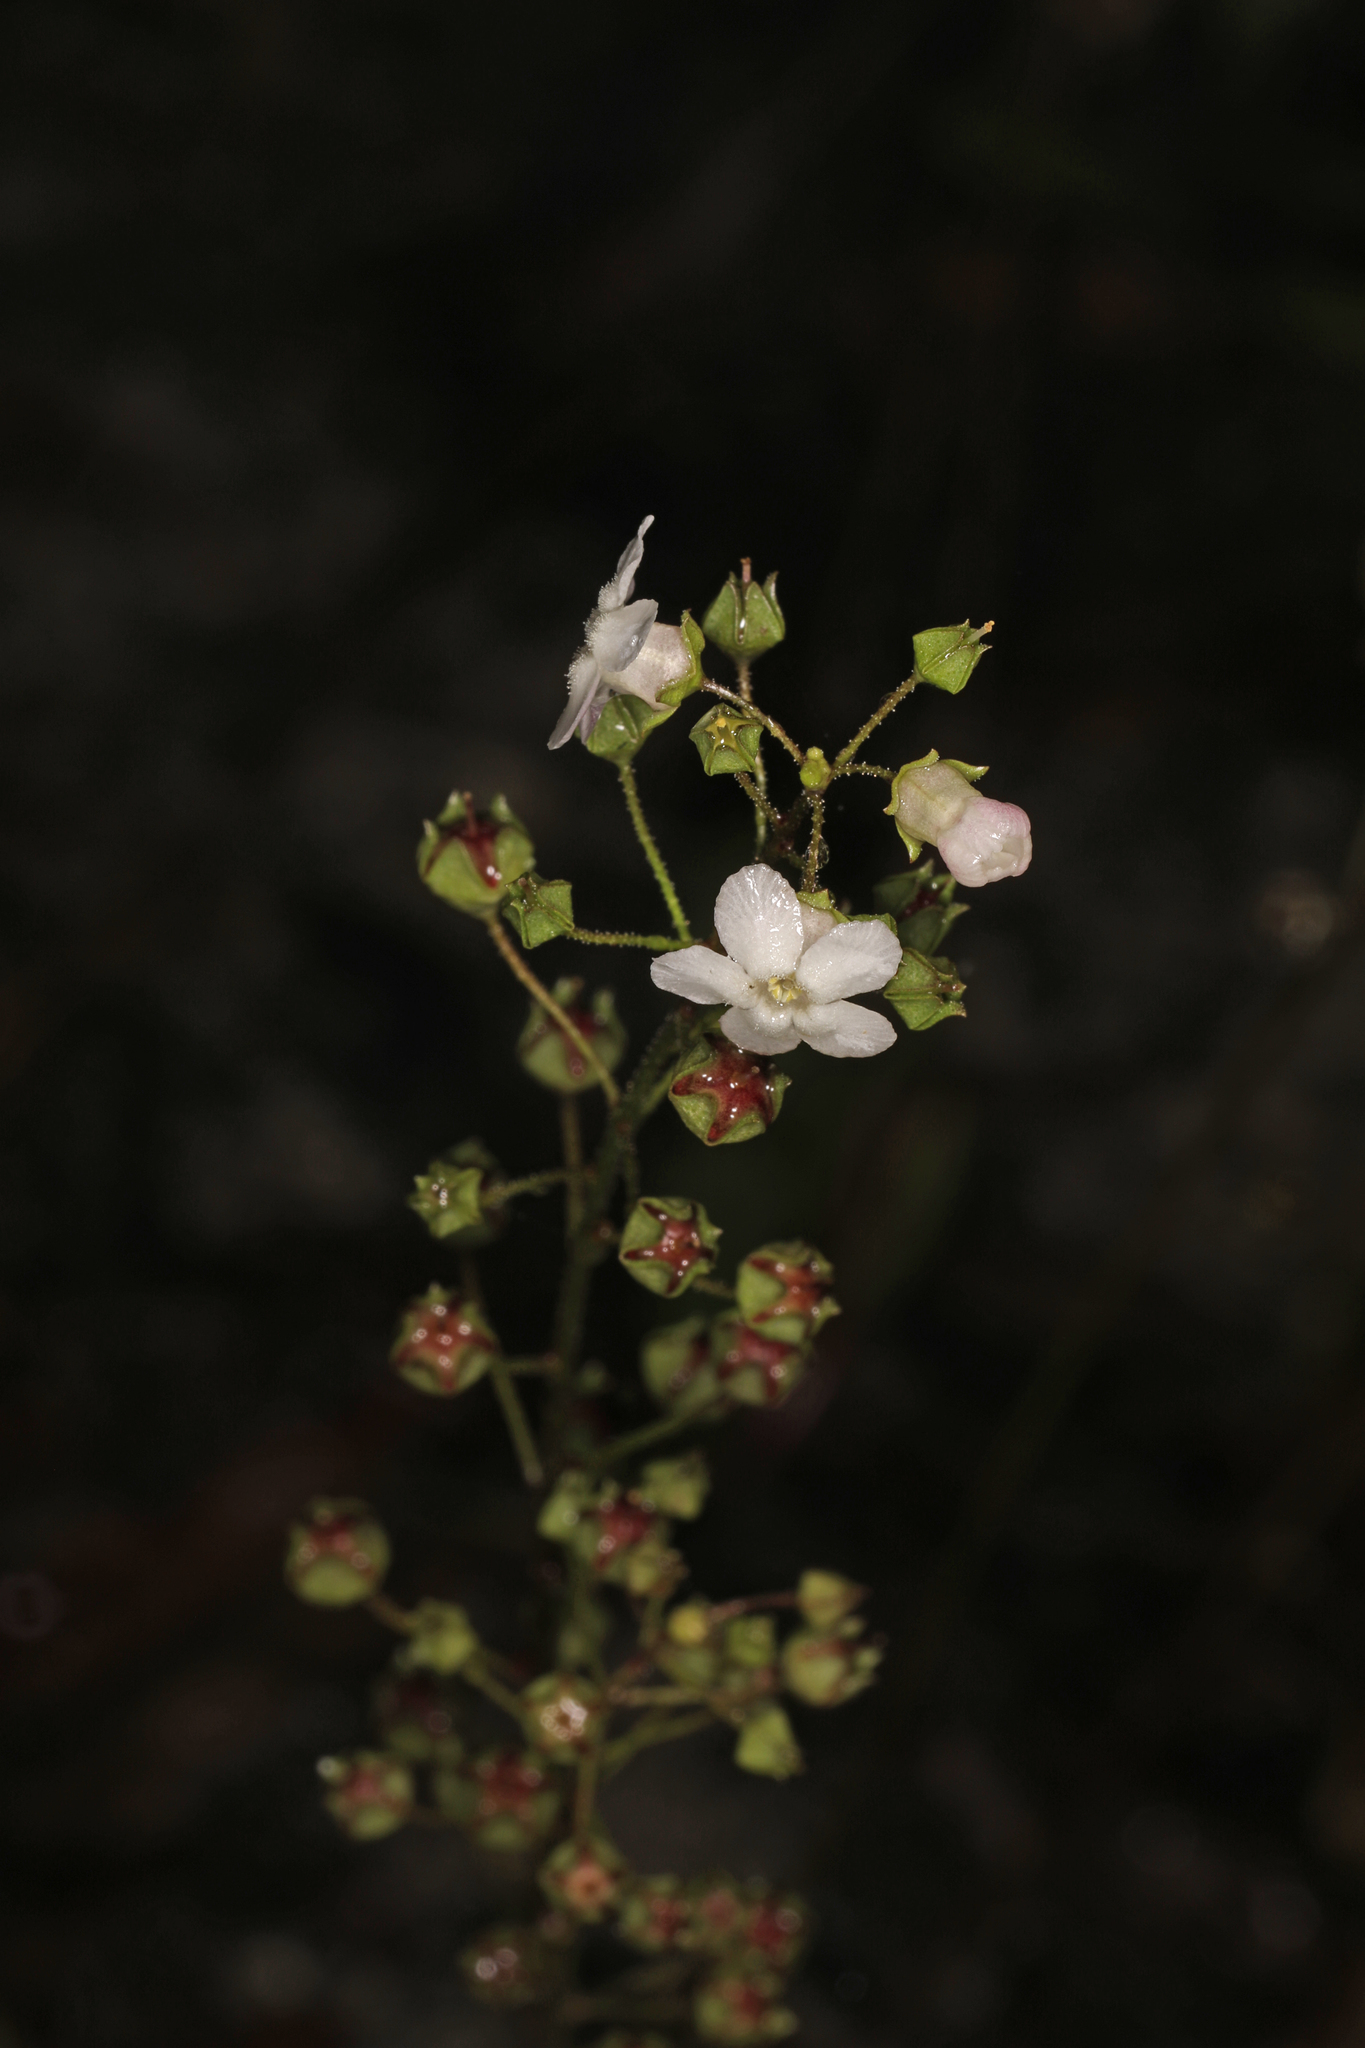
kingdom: Plantae
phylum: Tracheophyta
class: Magnoliopsida
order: Ericales
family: Primulaceae
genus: Samolus
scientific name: Samolus ebracteatus
